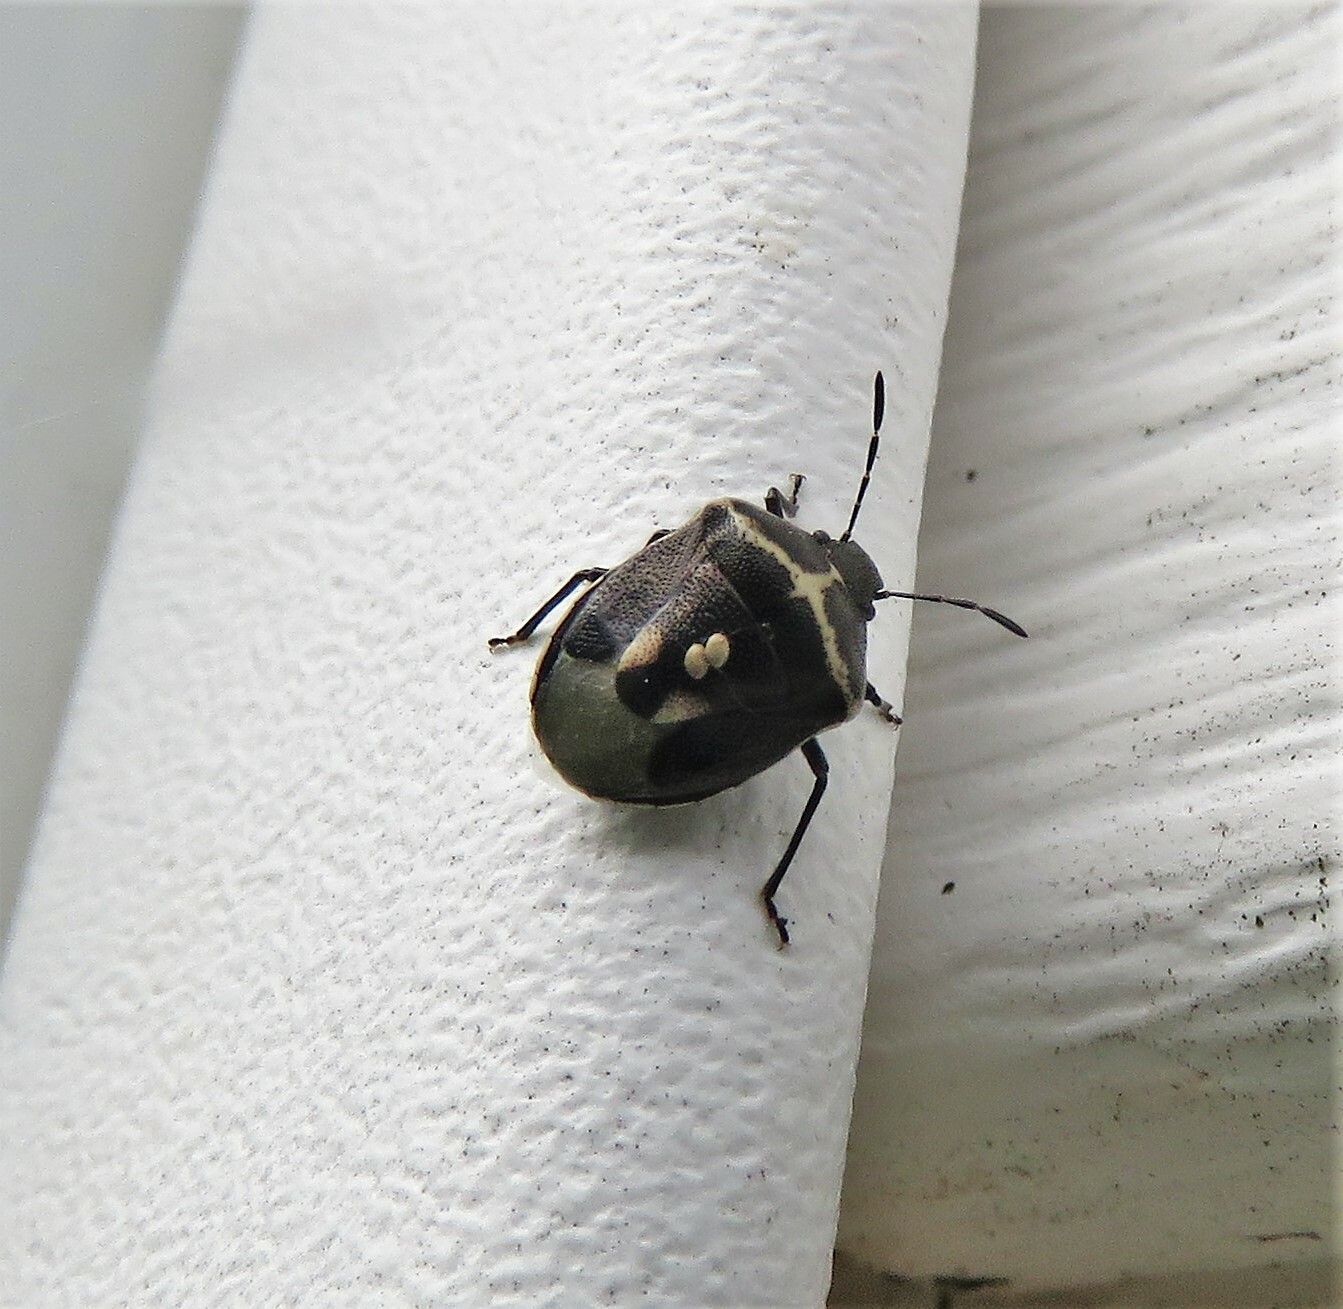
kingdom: Animalia
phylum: Arthropoda
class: Insecta
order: Hemiptera
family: Pentatomidae
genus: Cosmopepla
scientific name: Cosmopepla lintneriana
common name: Twice-stabbed stink bug
